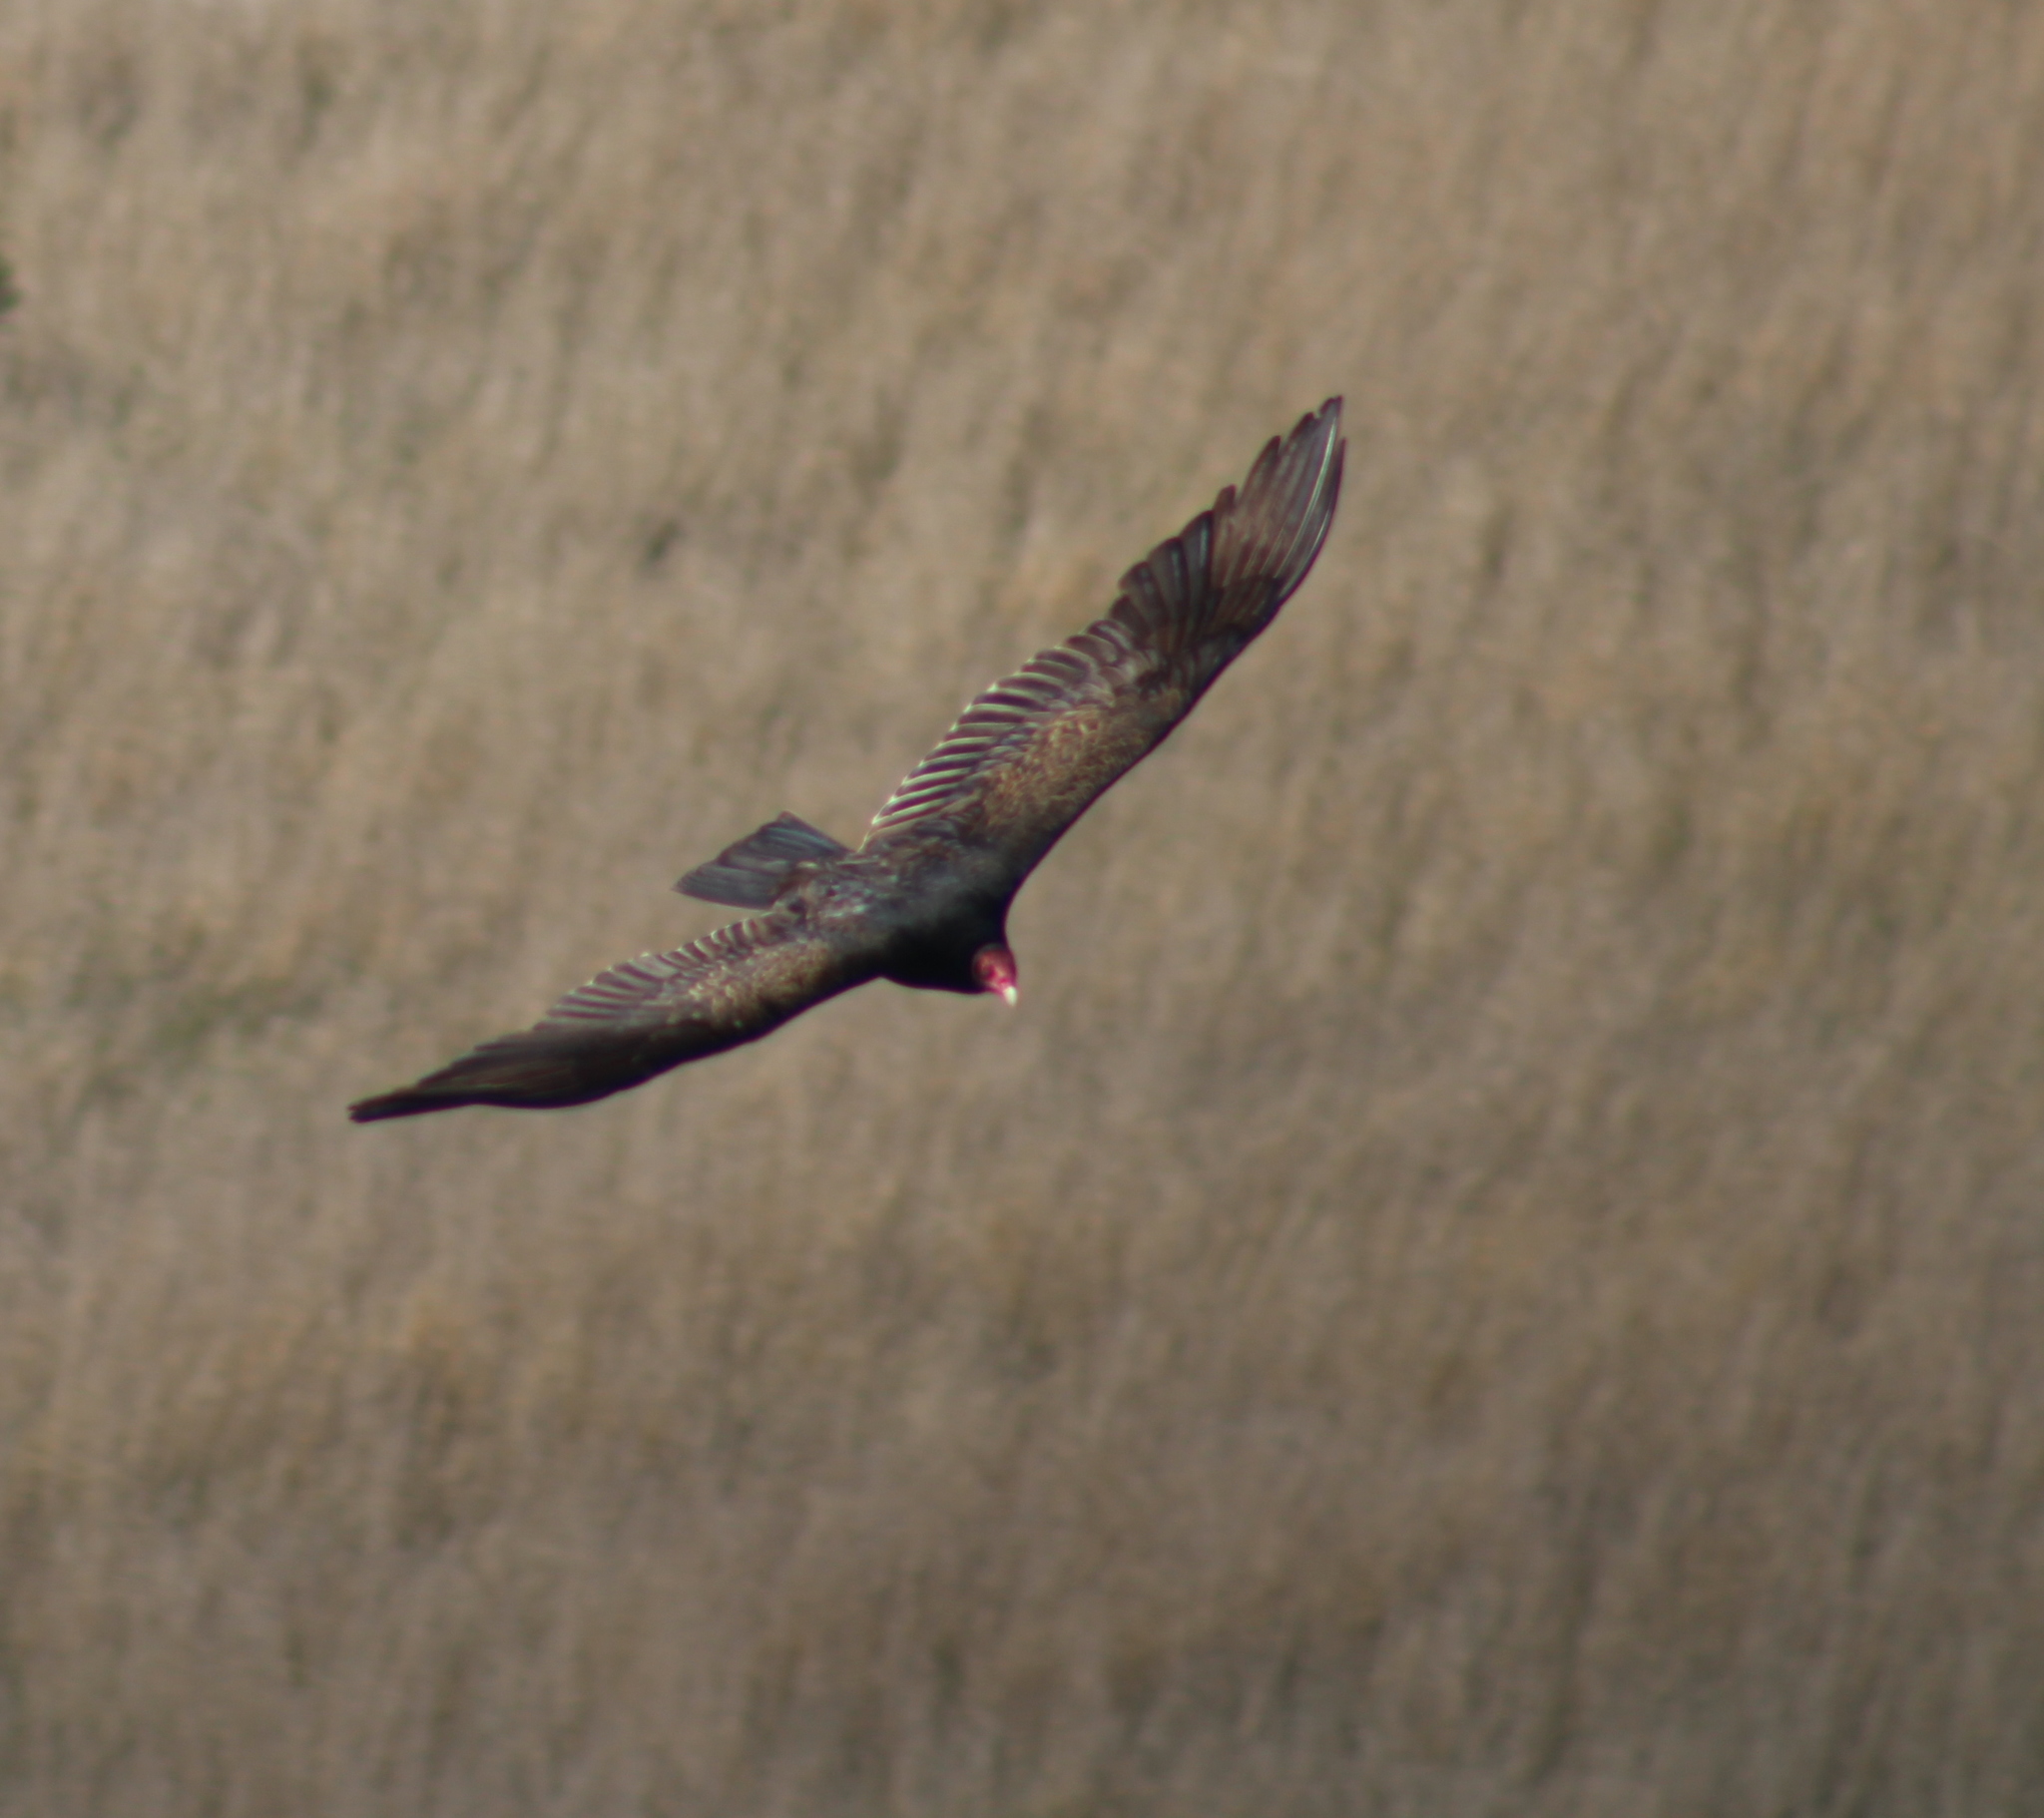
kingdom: Animalia
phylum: Chordata
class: Aves
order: Accipitriformes
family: Cathartidae
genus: Cathartes
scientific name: Cathartes aura
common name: Turkey vulture
